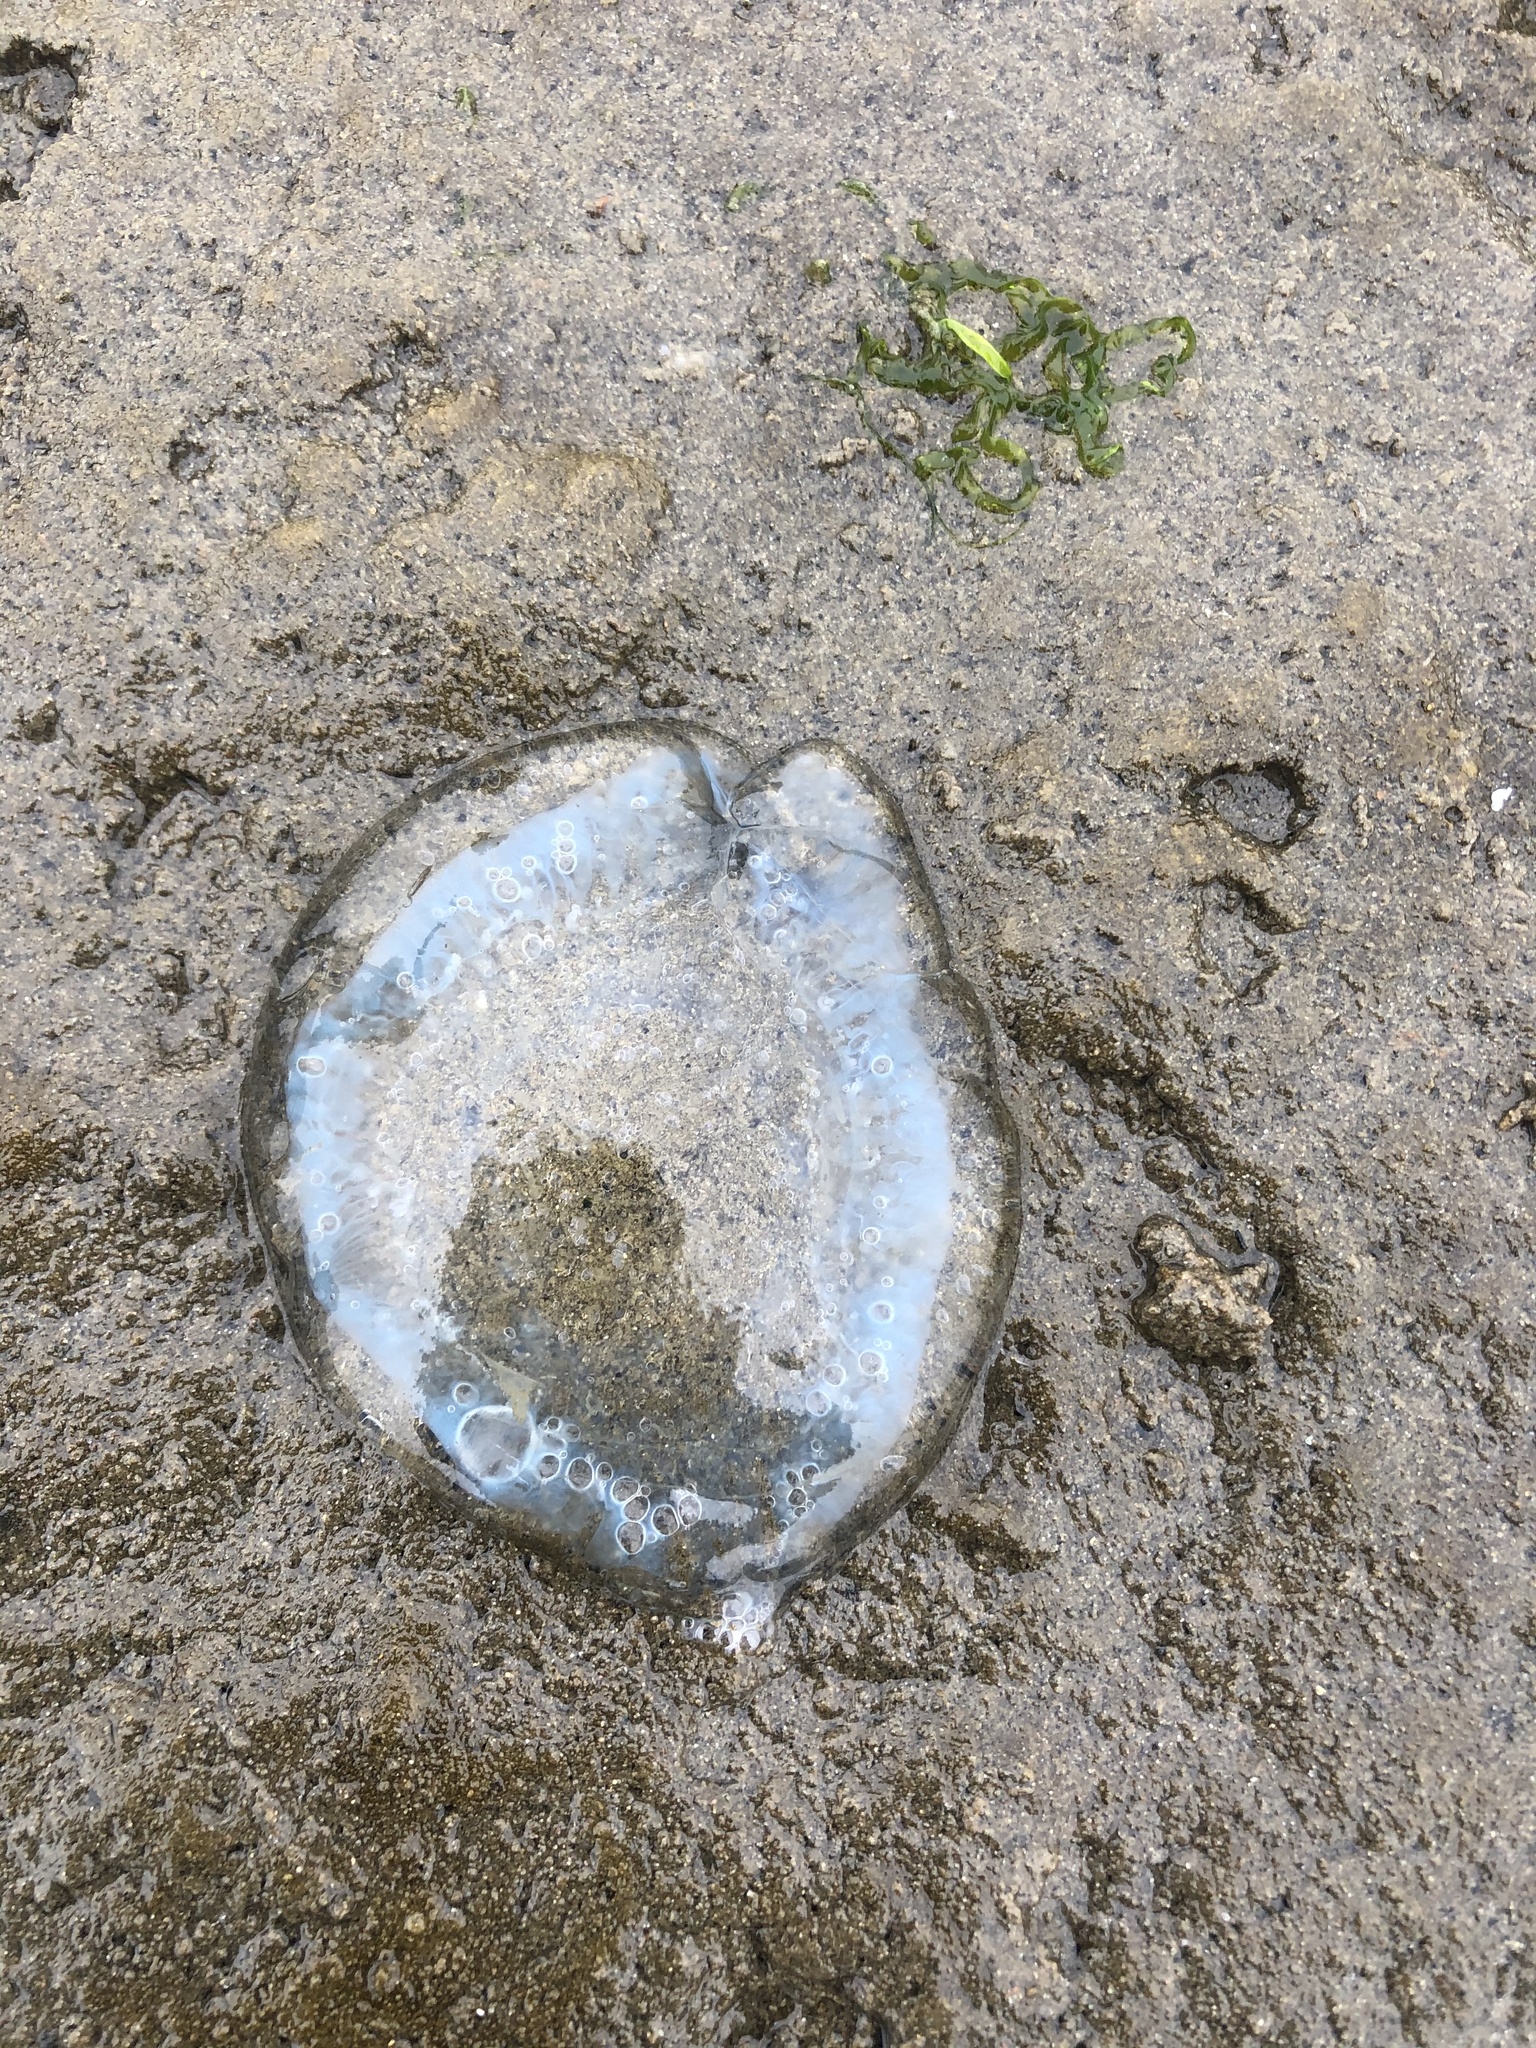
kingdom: Animalia
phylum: Cnidaria
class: Hydrozoa
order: Leptothecata
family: Aequoreidae
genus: Aequorea
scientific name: Aequorea victoria
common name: Water jellyfish
